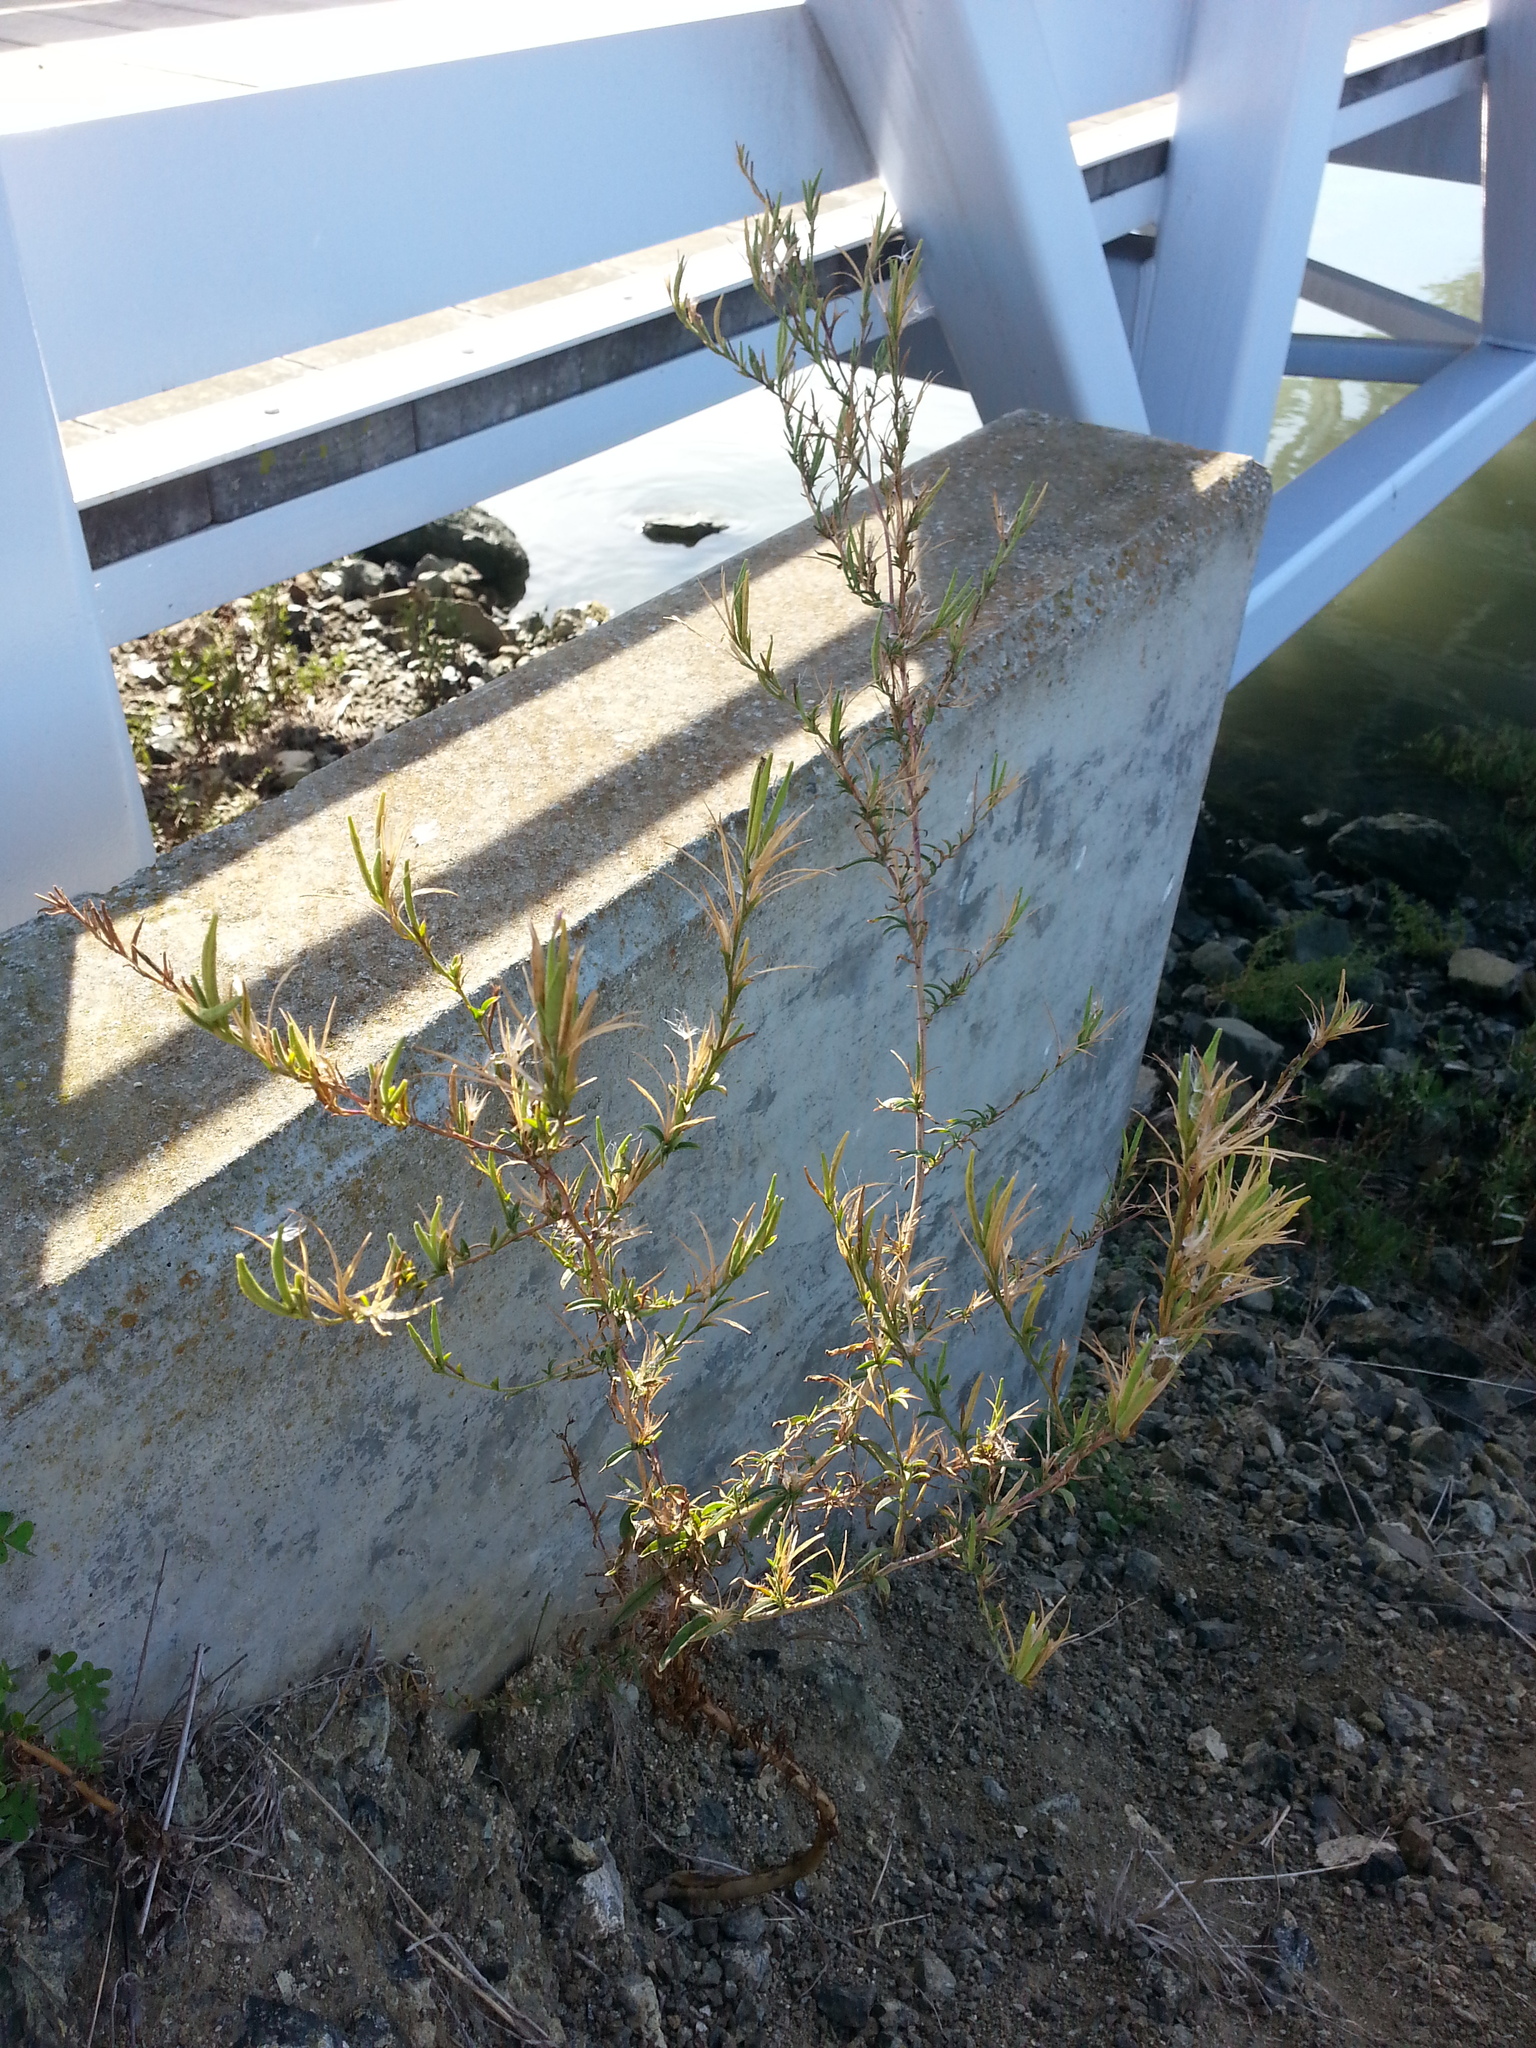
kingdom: Plantae
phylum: Tracheophyta
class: Magnoliopsida
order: Myrtales
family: Onagraceae
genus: Epilobium
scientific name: Epilobium brachycarpum
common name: Annual willowherb
